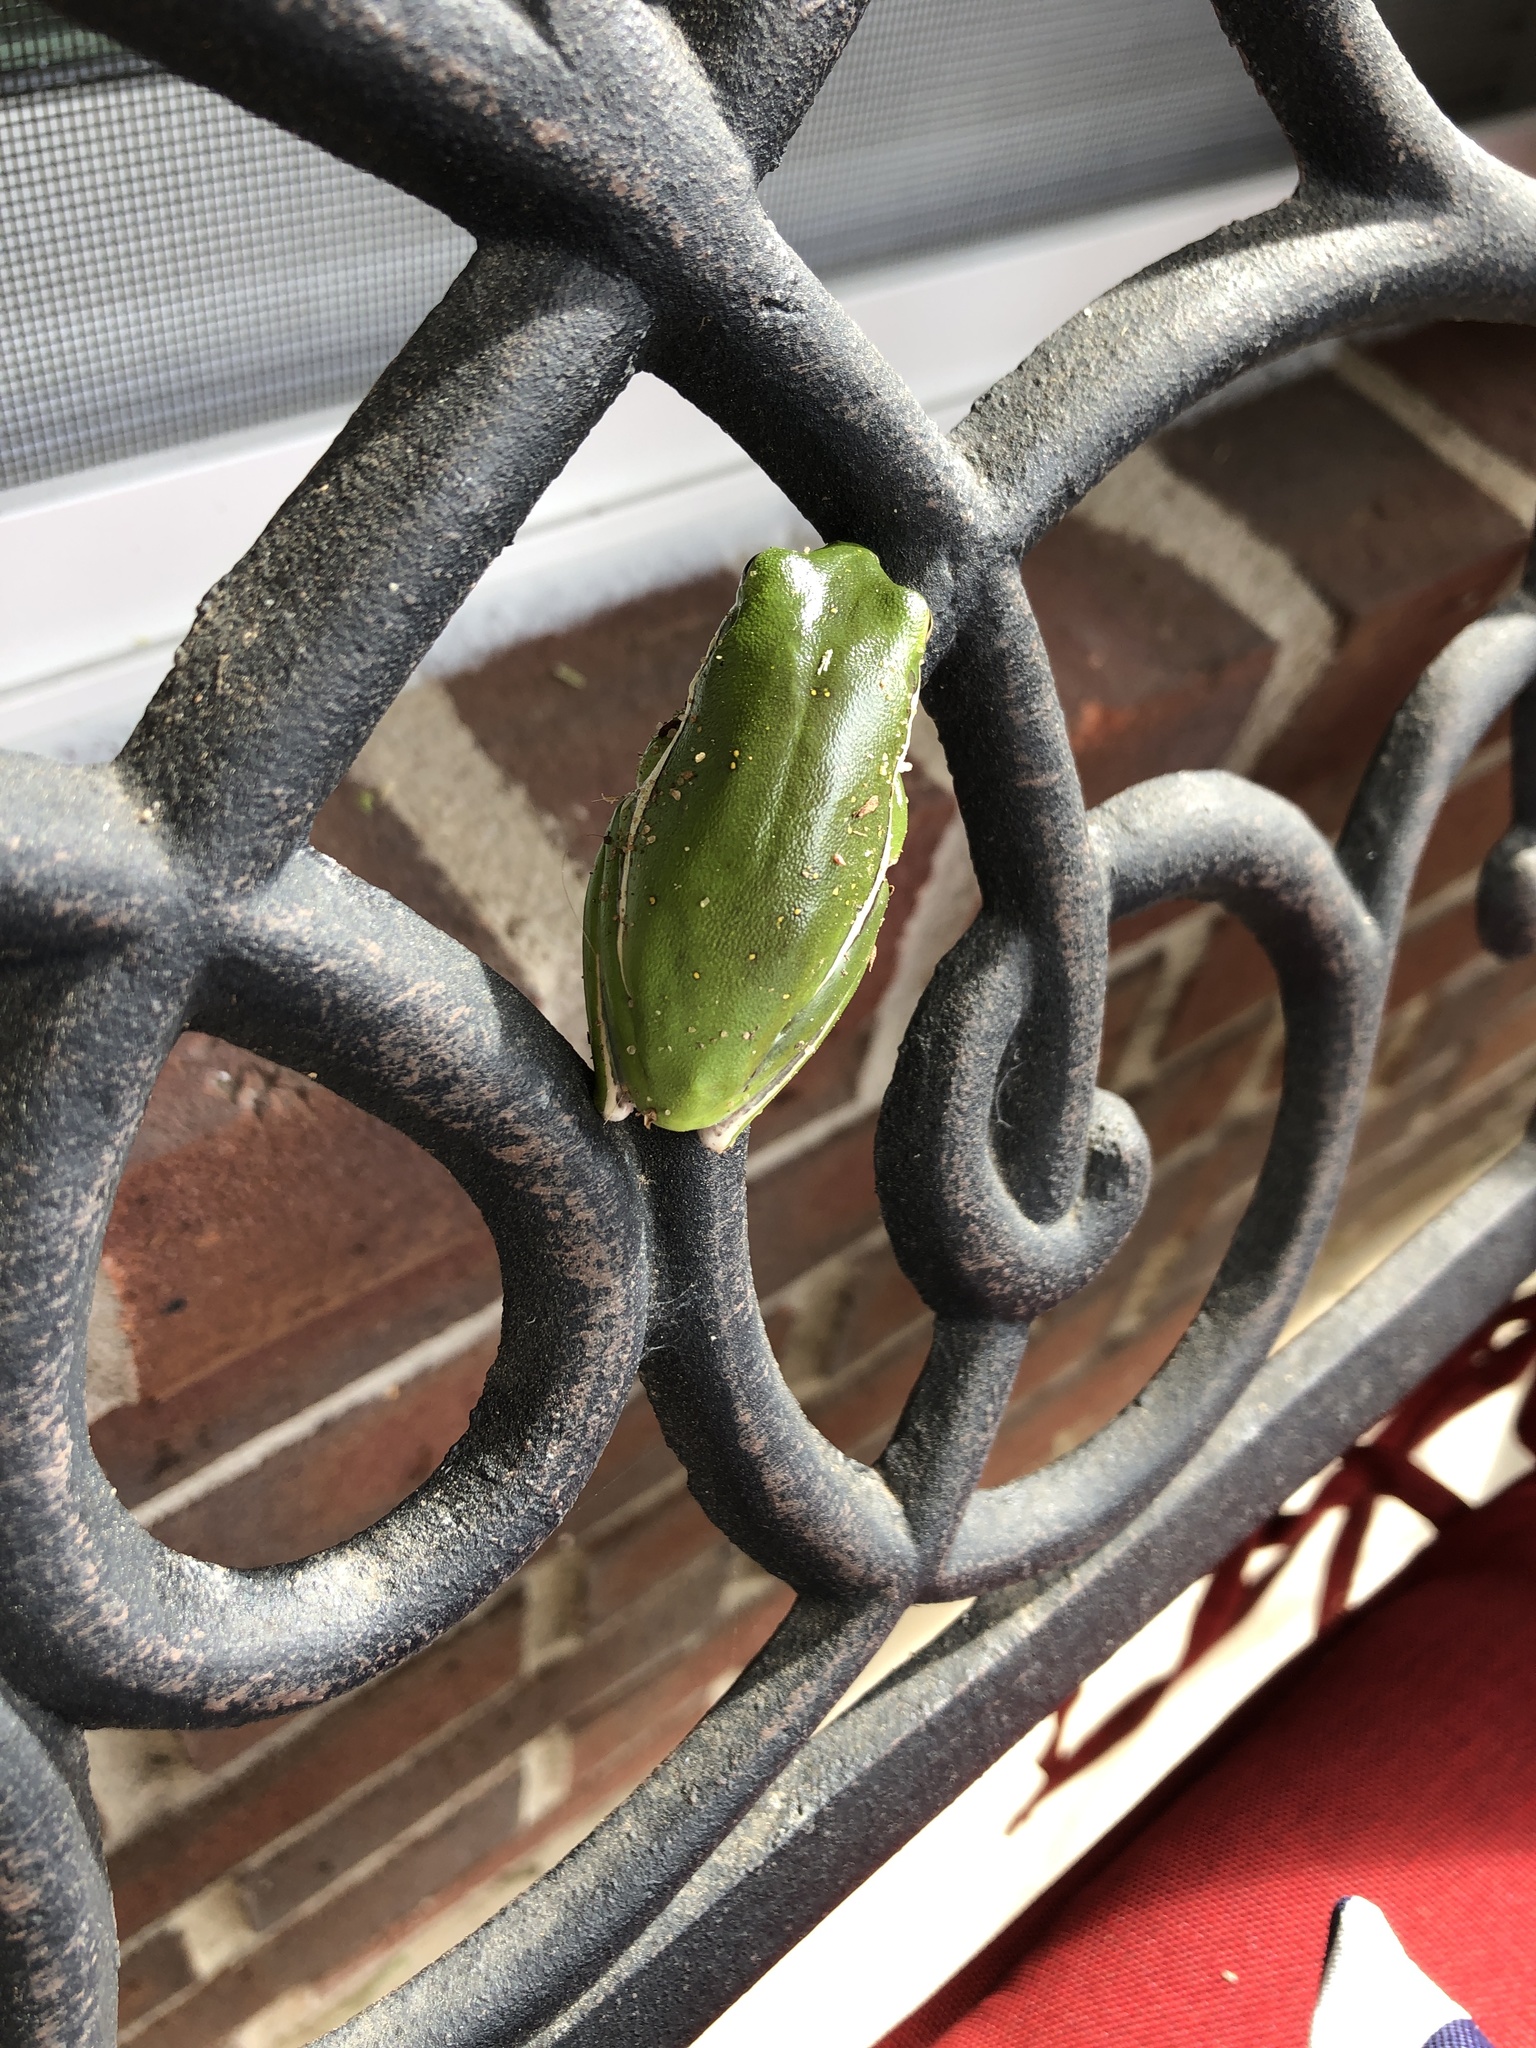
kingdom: Animalia
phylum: Chordata
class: Amphibia
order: Anura
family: Hylidae
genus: Dryophytes
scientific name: Dryophytes cinereus
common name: Green treefrog
